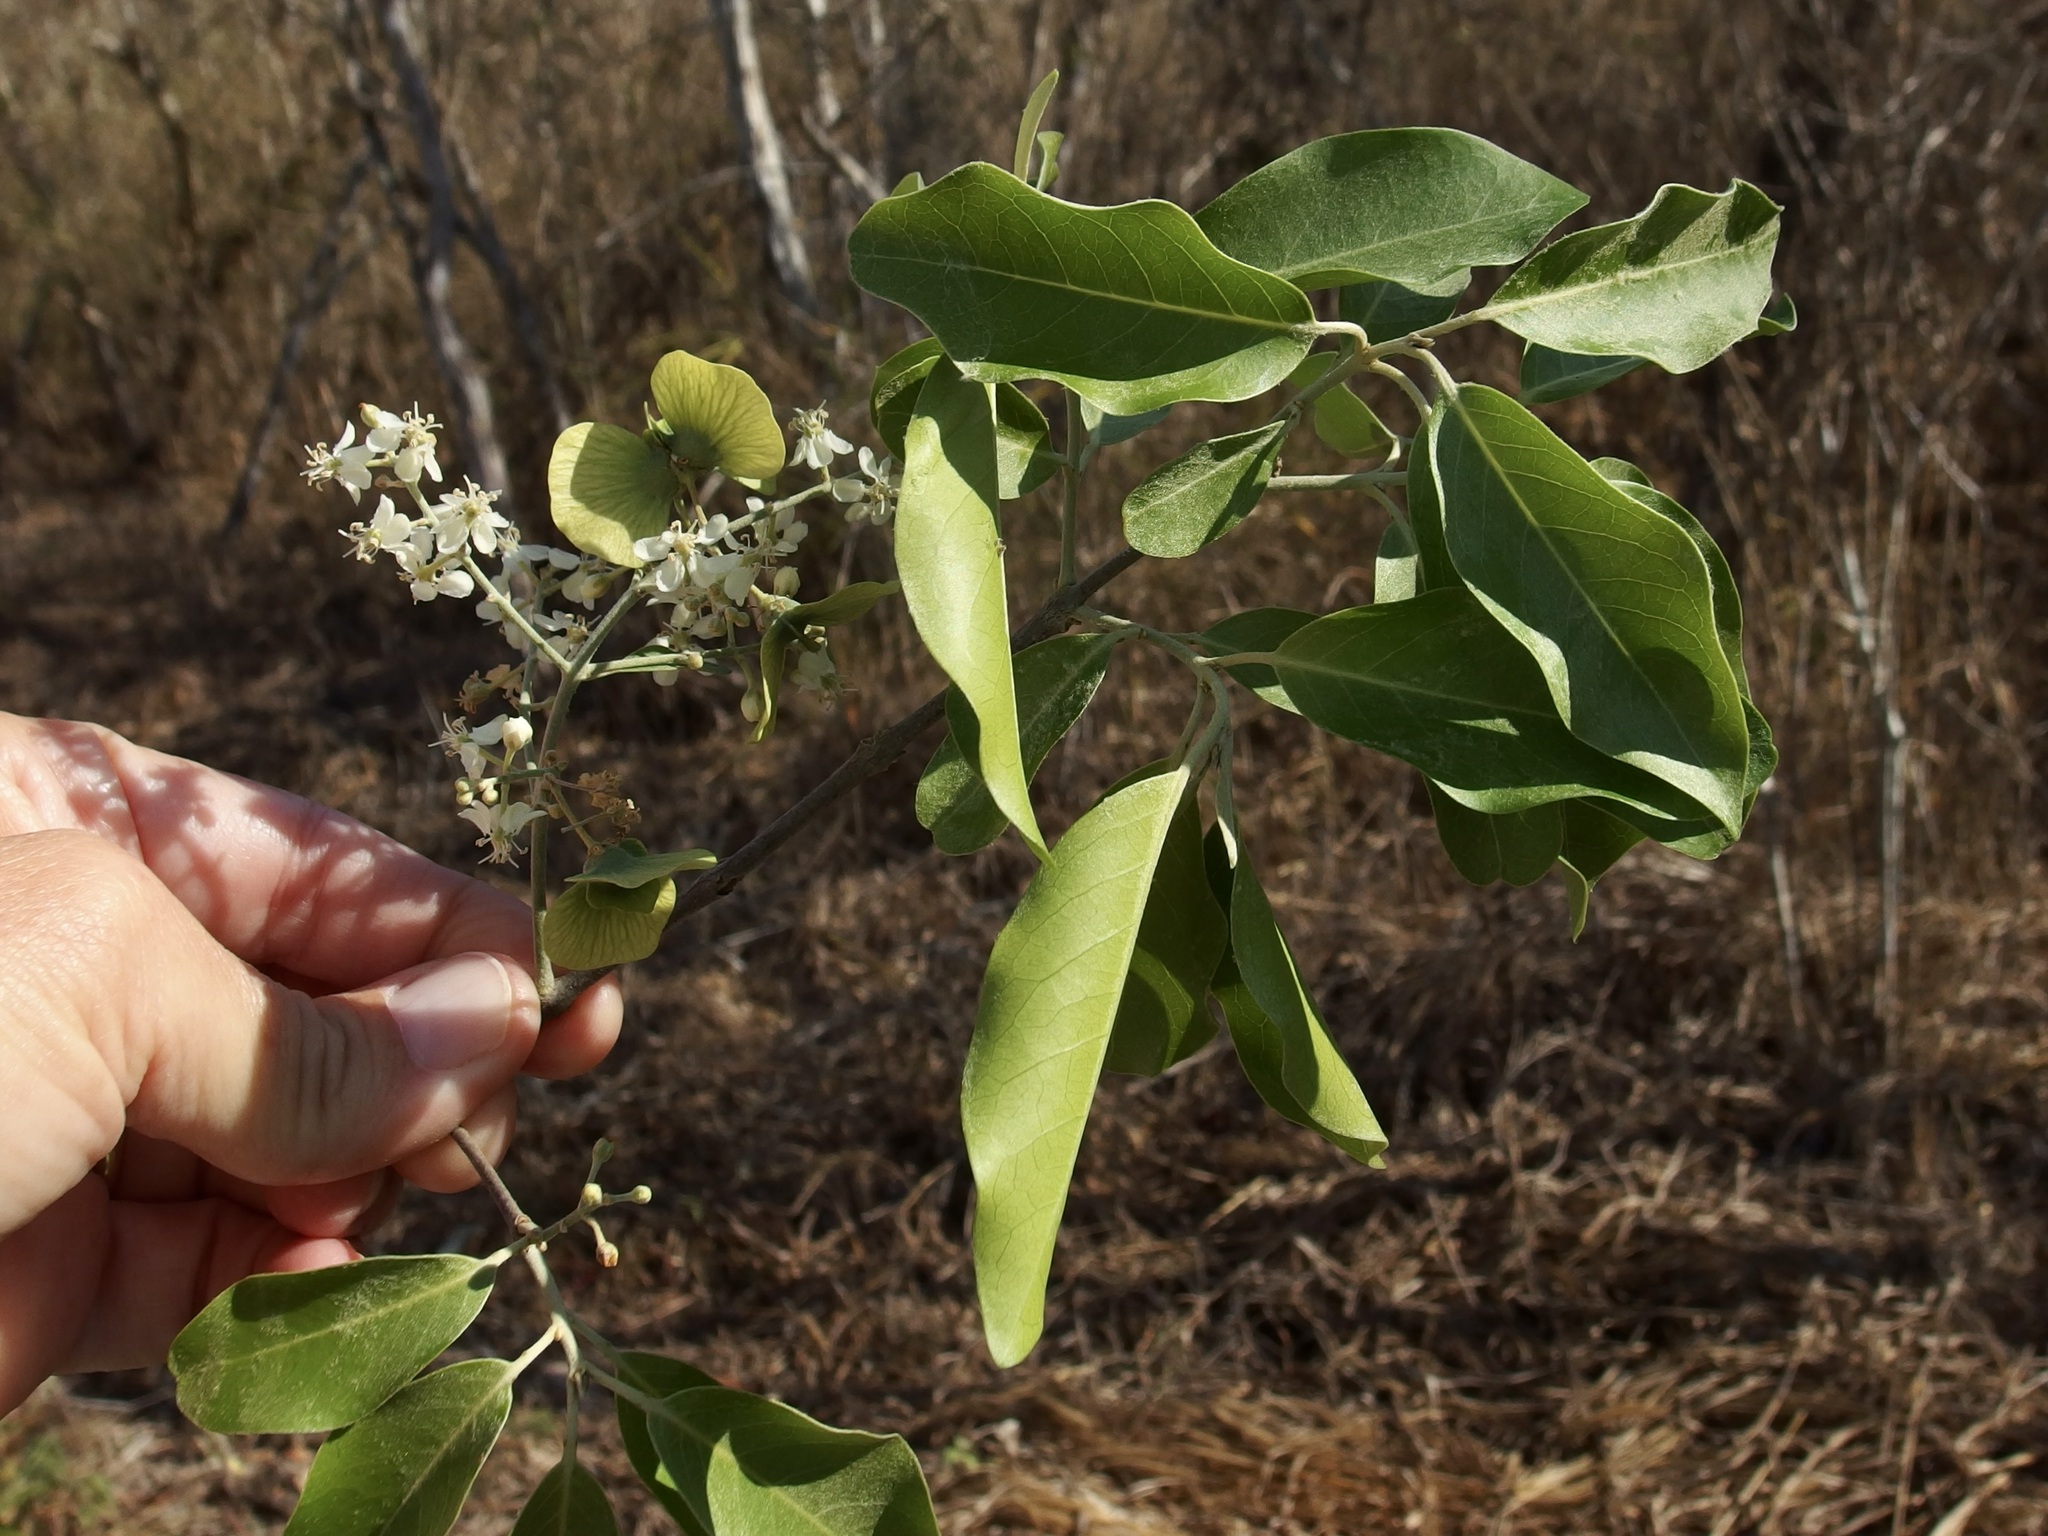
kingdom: Plantae
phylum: Tracheophyta
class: Magnoliopsida
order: Malpighiales
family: Malpighiaceae
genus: Psychopterys
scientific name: Psychopterys multiflora
